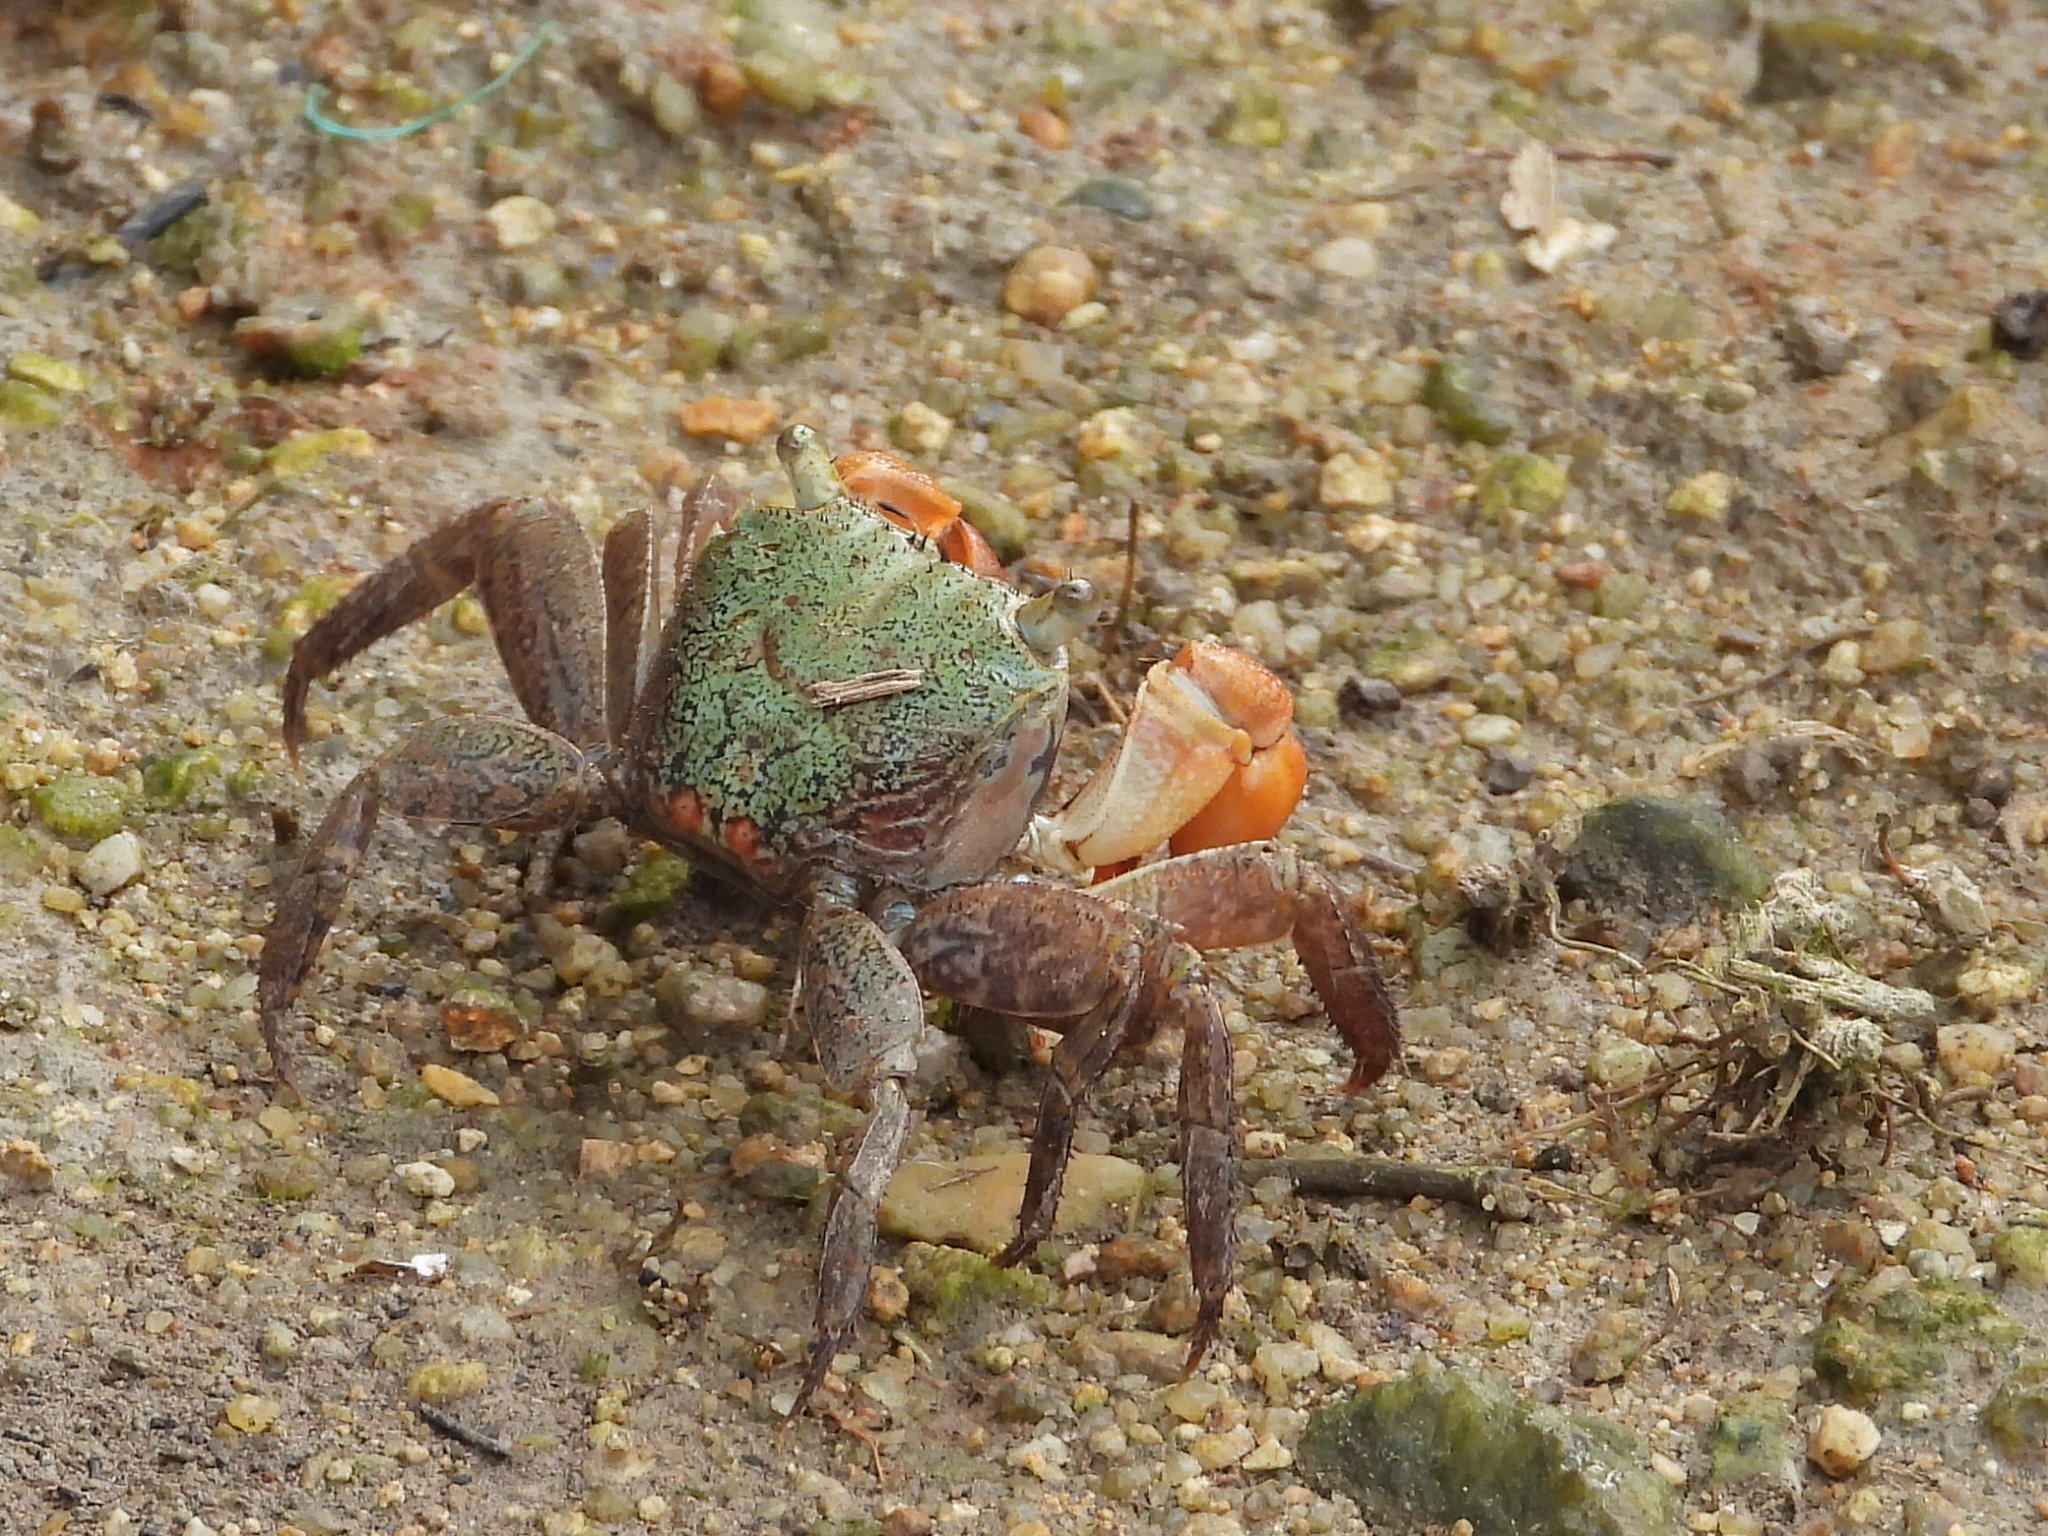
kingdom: Animalia
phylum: Arthropoda
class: Malacostraca
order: Decapoda
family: Sesarmidae
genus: Parasesarma
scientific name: Parasesarma bidens
